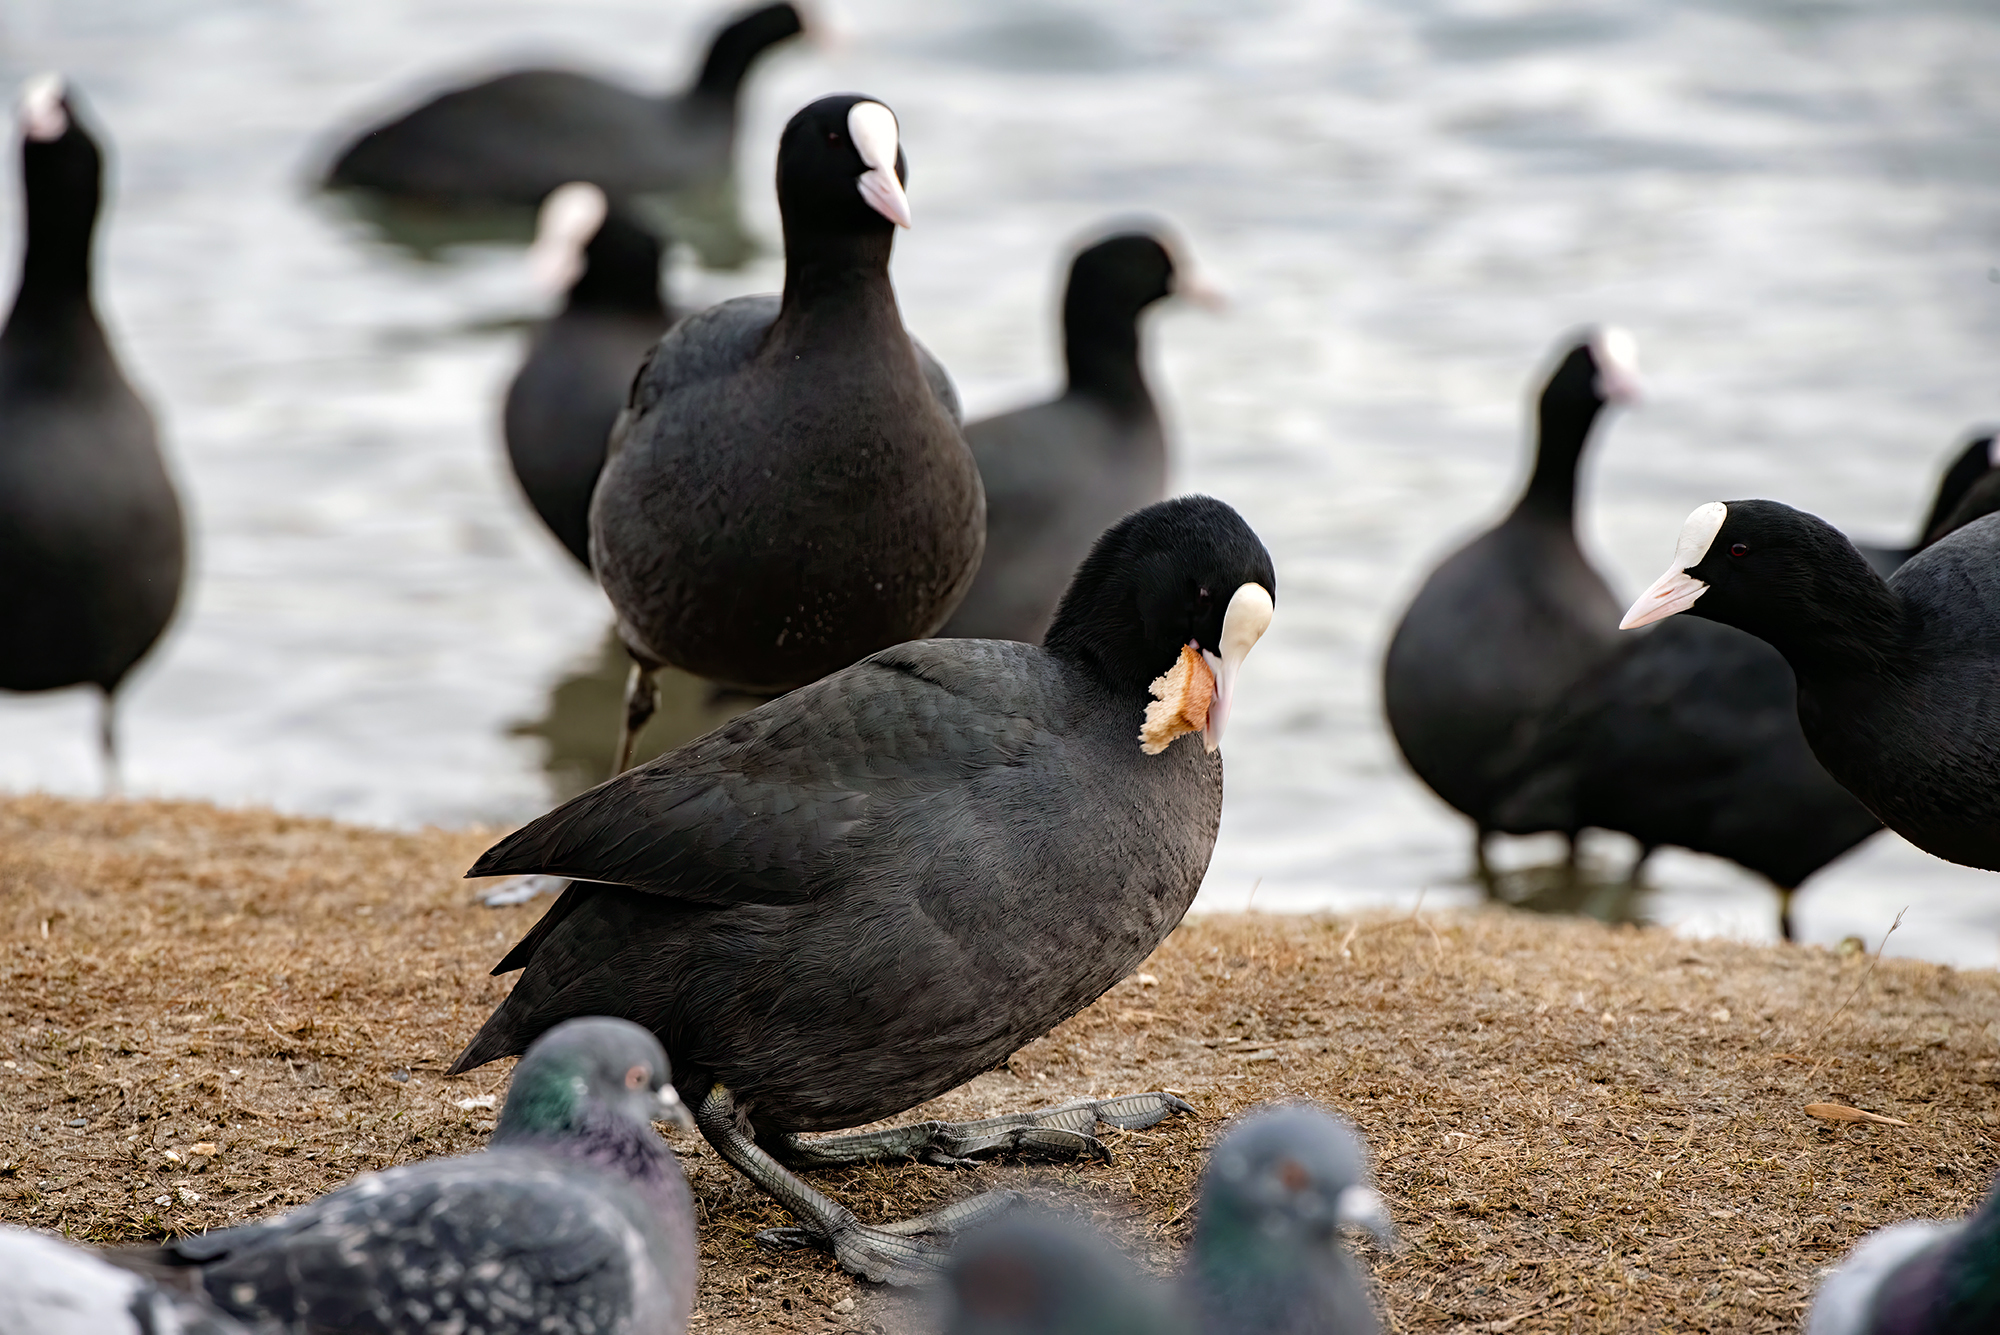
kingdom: Animalia
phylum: Chordata
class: Aves
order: Gruiformes
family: Rallidae
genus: Fulica
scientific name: Fulica atra
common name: Eurasian coot
